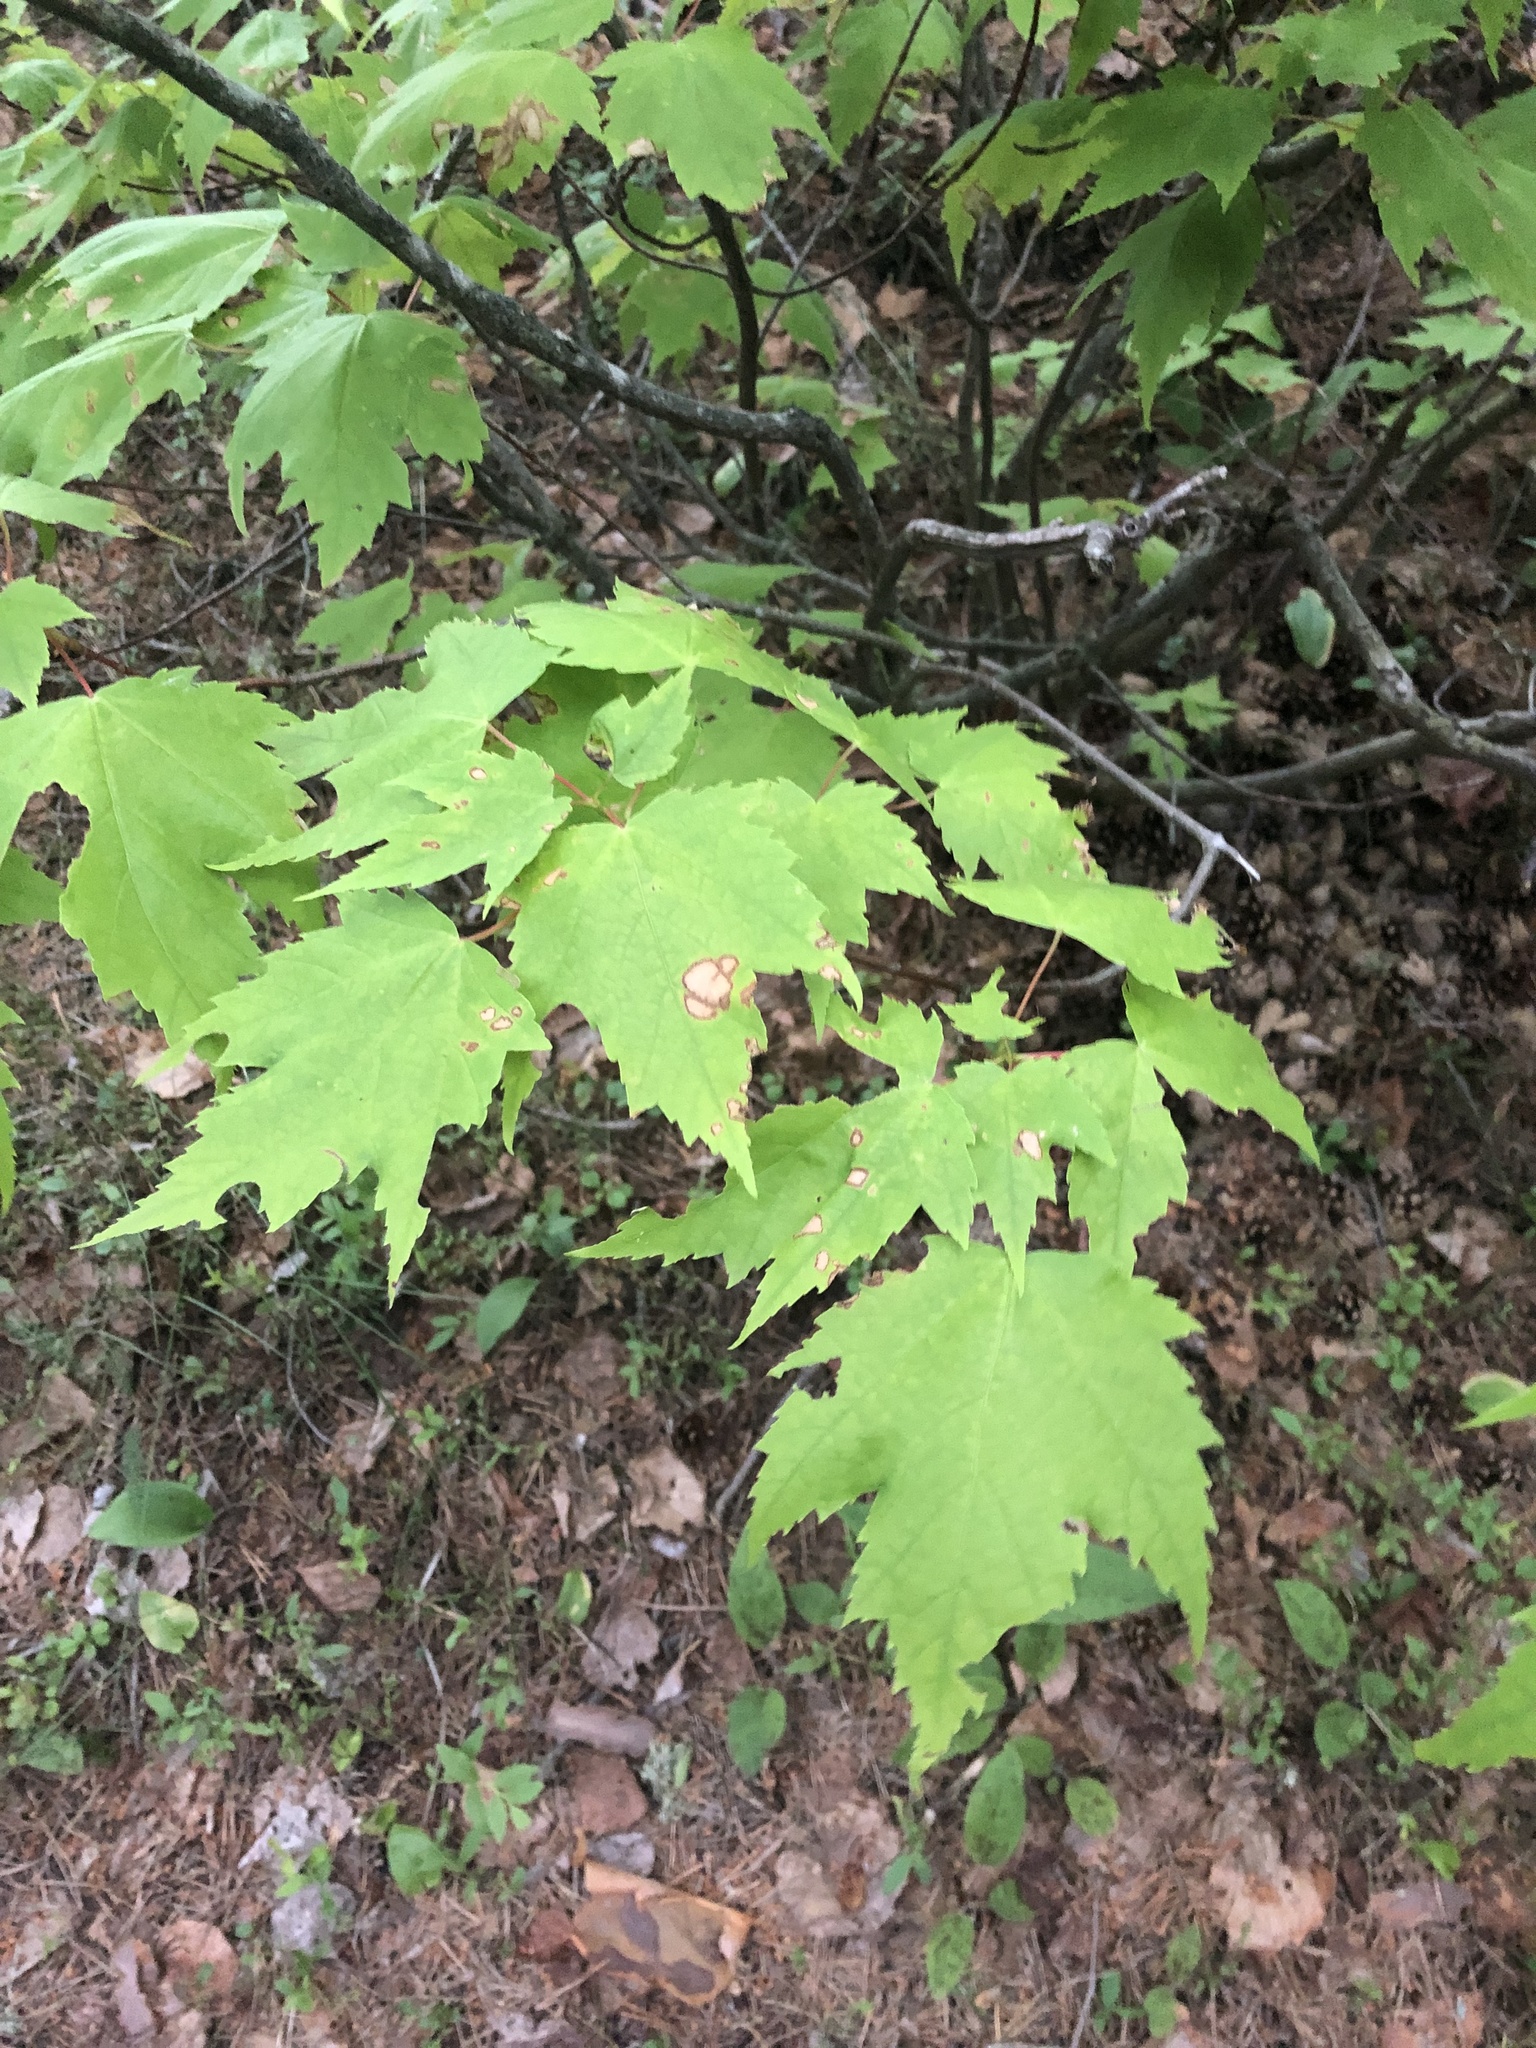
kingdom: Plantae
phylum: Tracheophyta
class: Magnoliopsida
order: Sapindales
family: Sapindaceae
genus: Acer
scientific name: Acer rubrum
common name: Red maple
